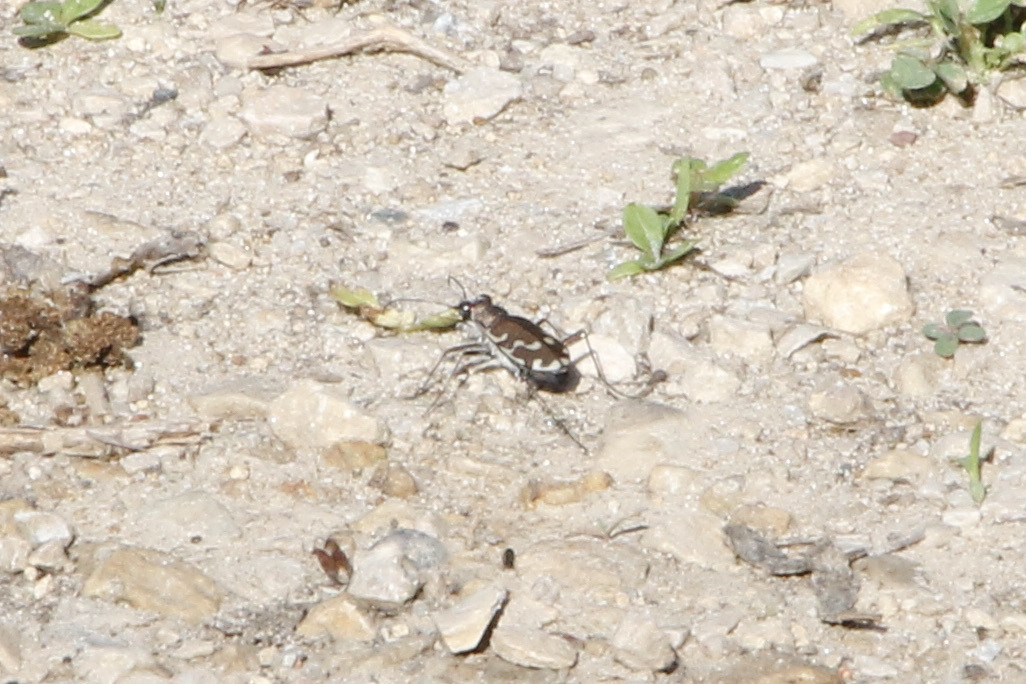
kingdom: Animalia
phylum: Arthropoda
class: Insecta
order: Coleoptera
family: Carabidae
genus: Cicindela
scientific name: Cicindela repanda
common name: Bronzed tiger beetle
